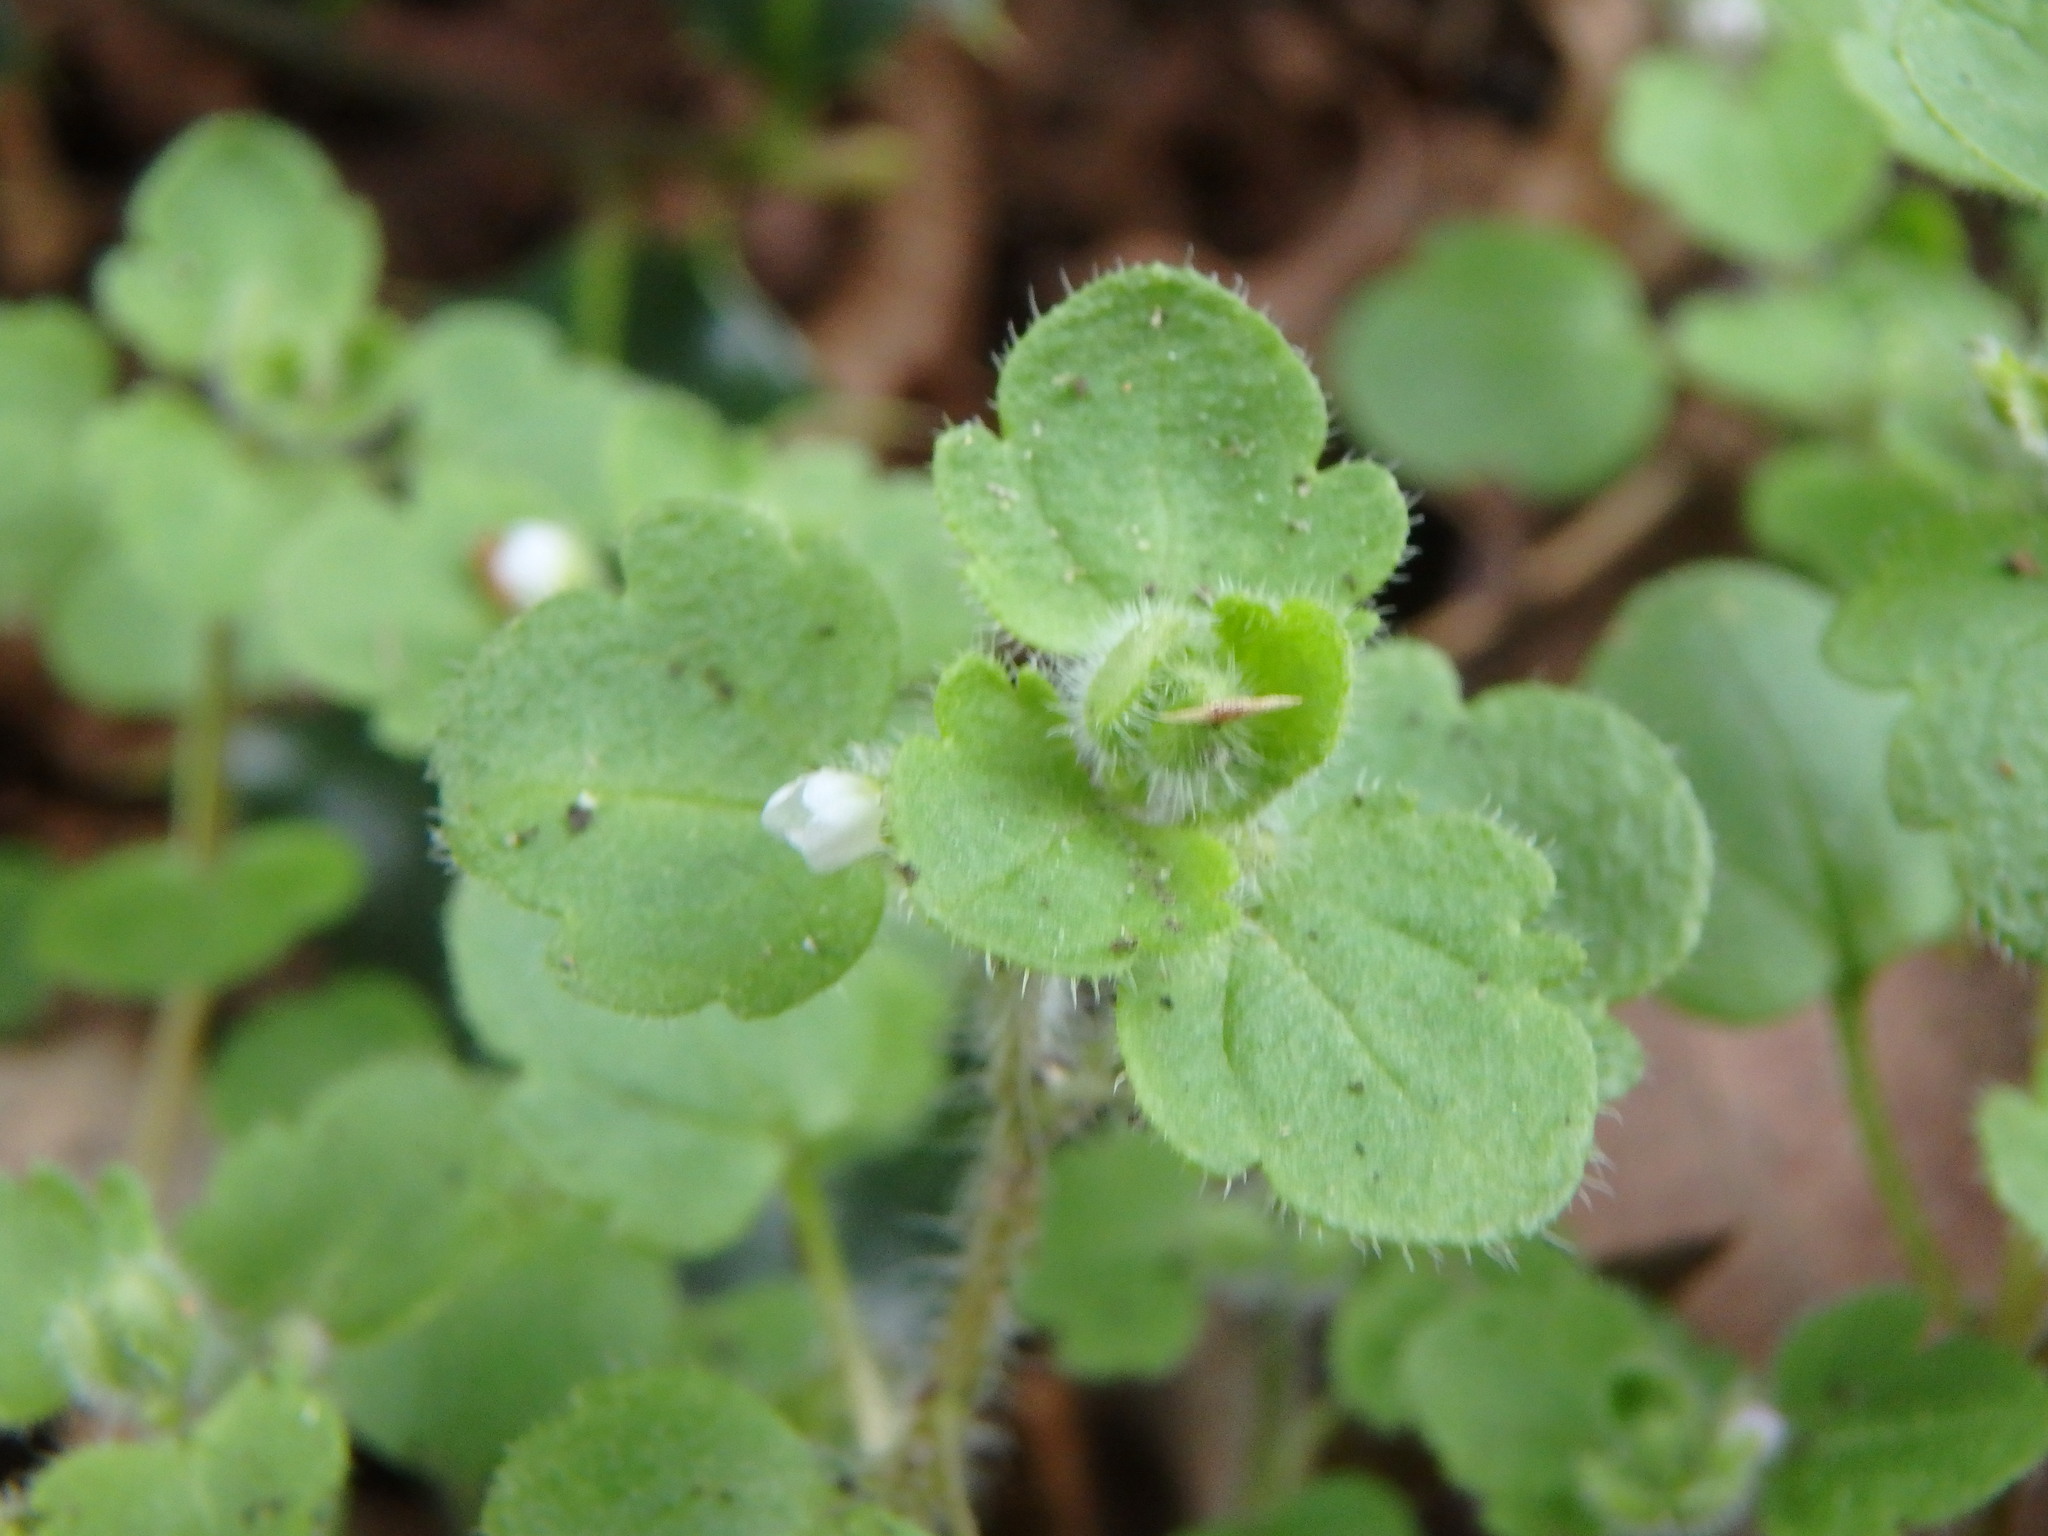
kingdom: Plantae
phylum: Tracheophyta
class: Magnoliopsida
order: Lamiales
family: Plantaginaceae
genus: Veronica
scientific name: Veronica hederifolia
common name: Ivy-leaved speedwell
